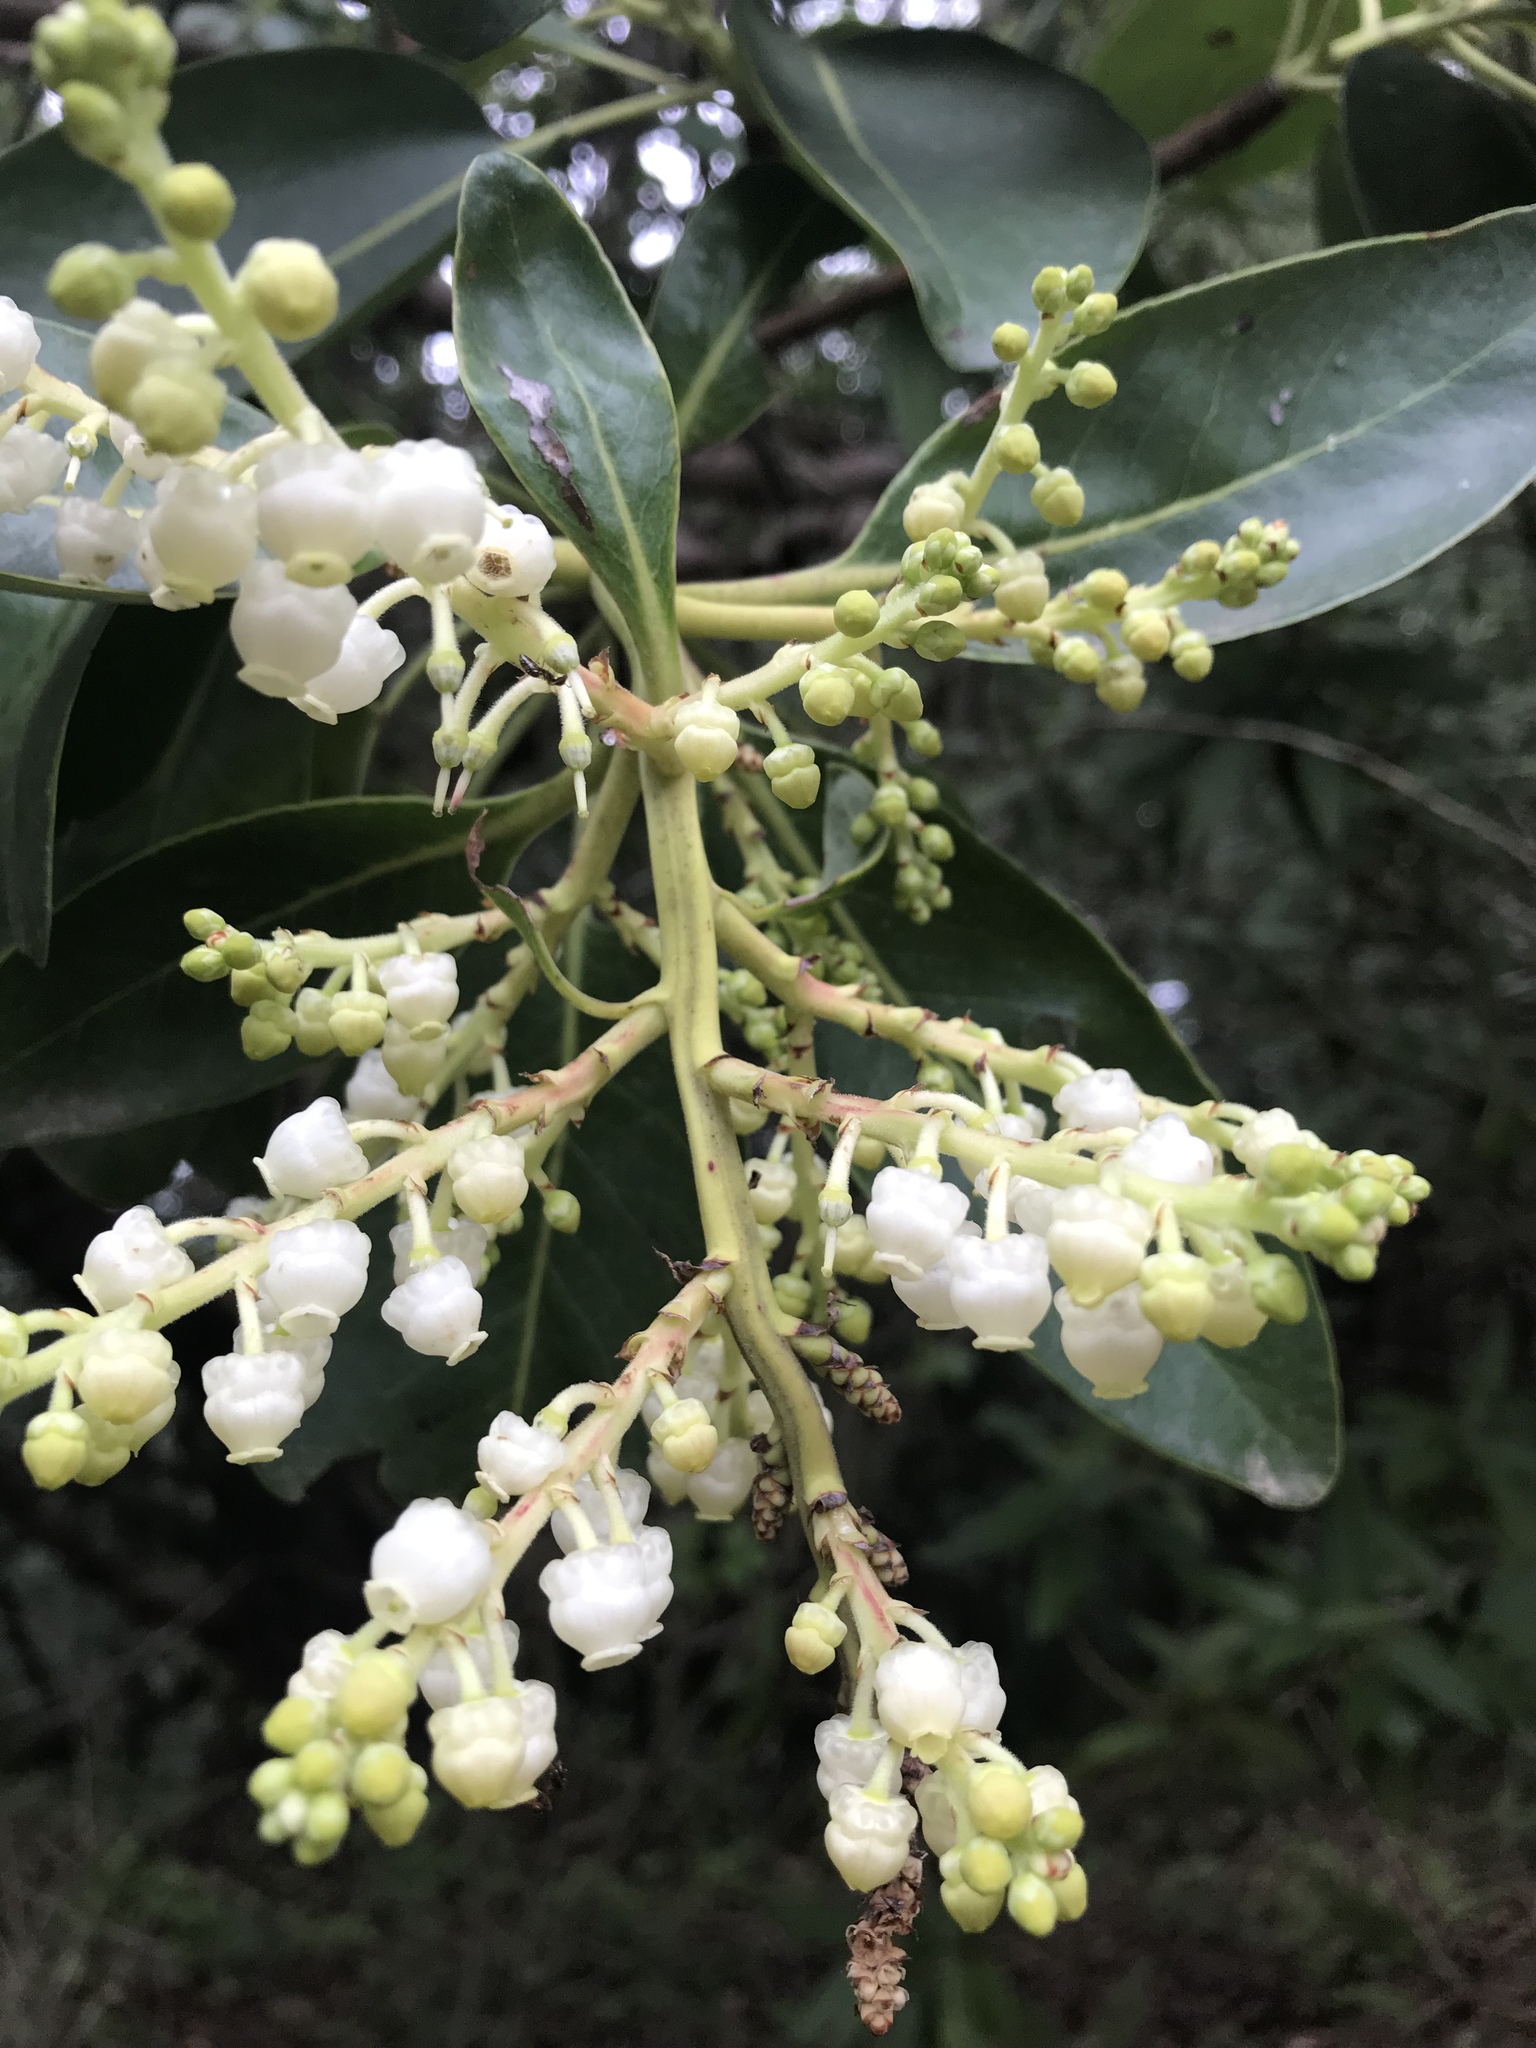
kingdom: Plantae
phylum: Tracheophyta
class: Magnoliopsida
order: Ericales
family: Ericaceae
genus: Arbutus
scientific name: Arbutus menziesii
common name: Pacific madrone
